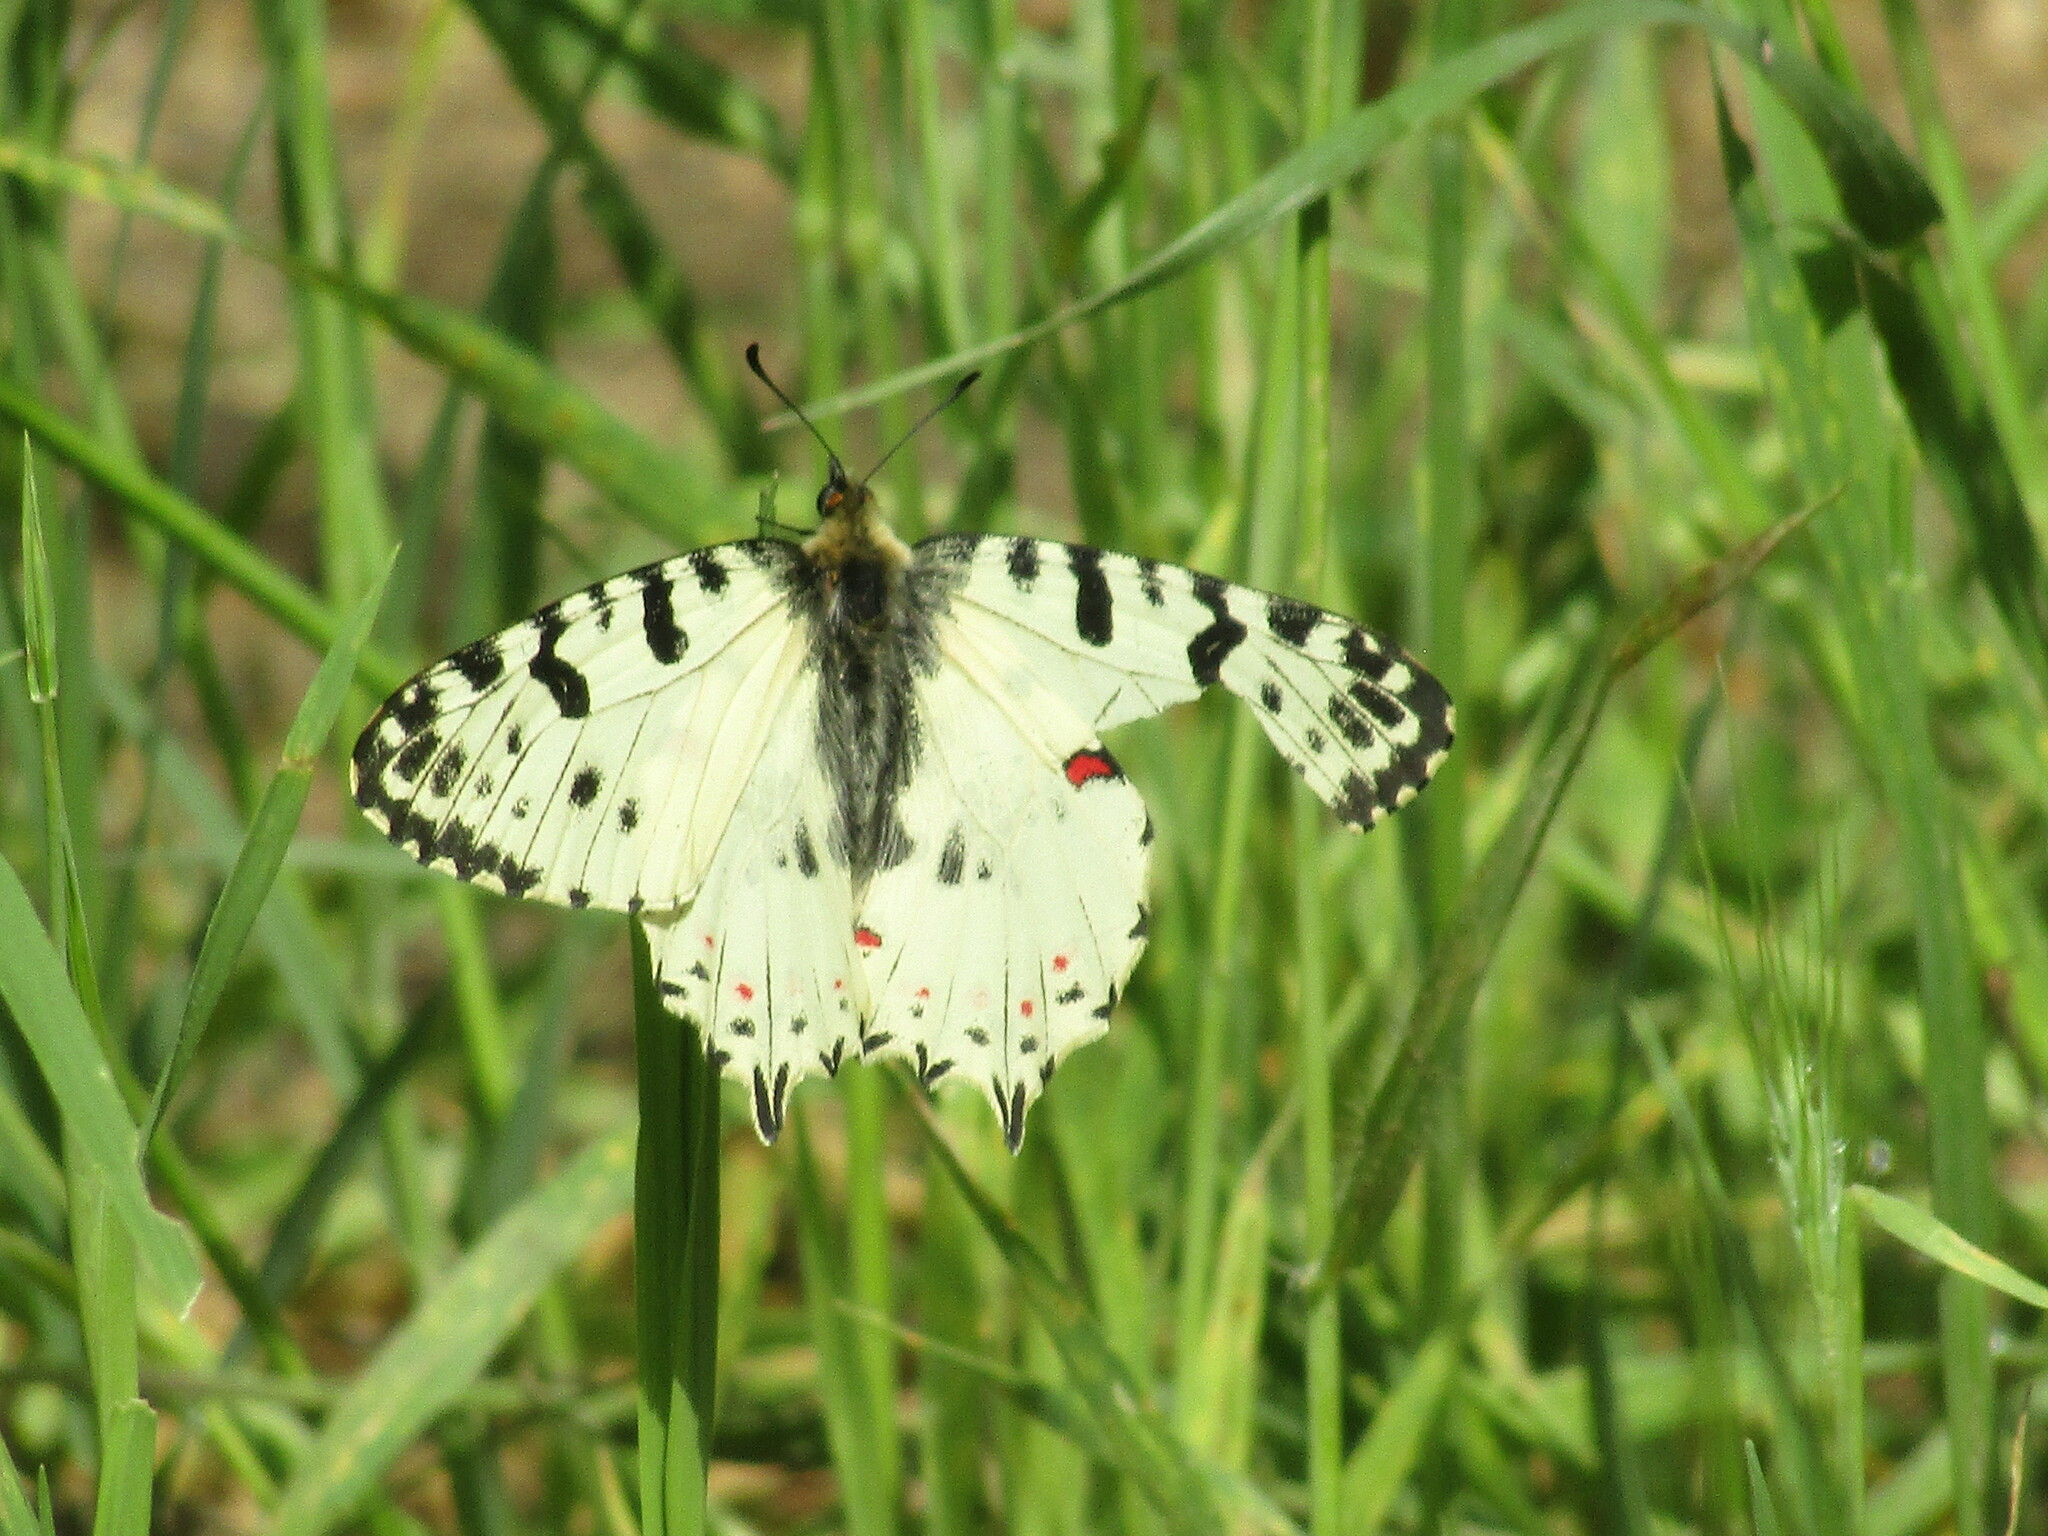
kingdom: Animalia
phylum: Arthropoda
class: Insecta
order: Lepidoptera
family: Papilionidae
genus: Zerynthia
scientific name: Zerynthia cerisy
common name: Eastern festoon
